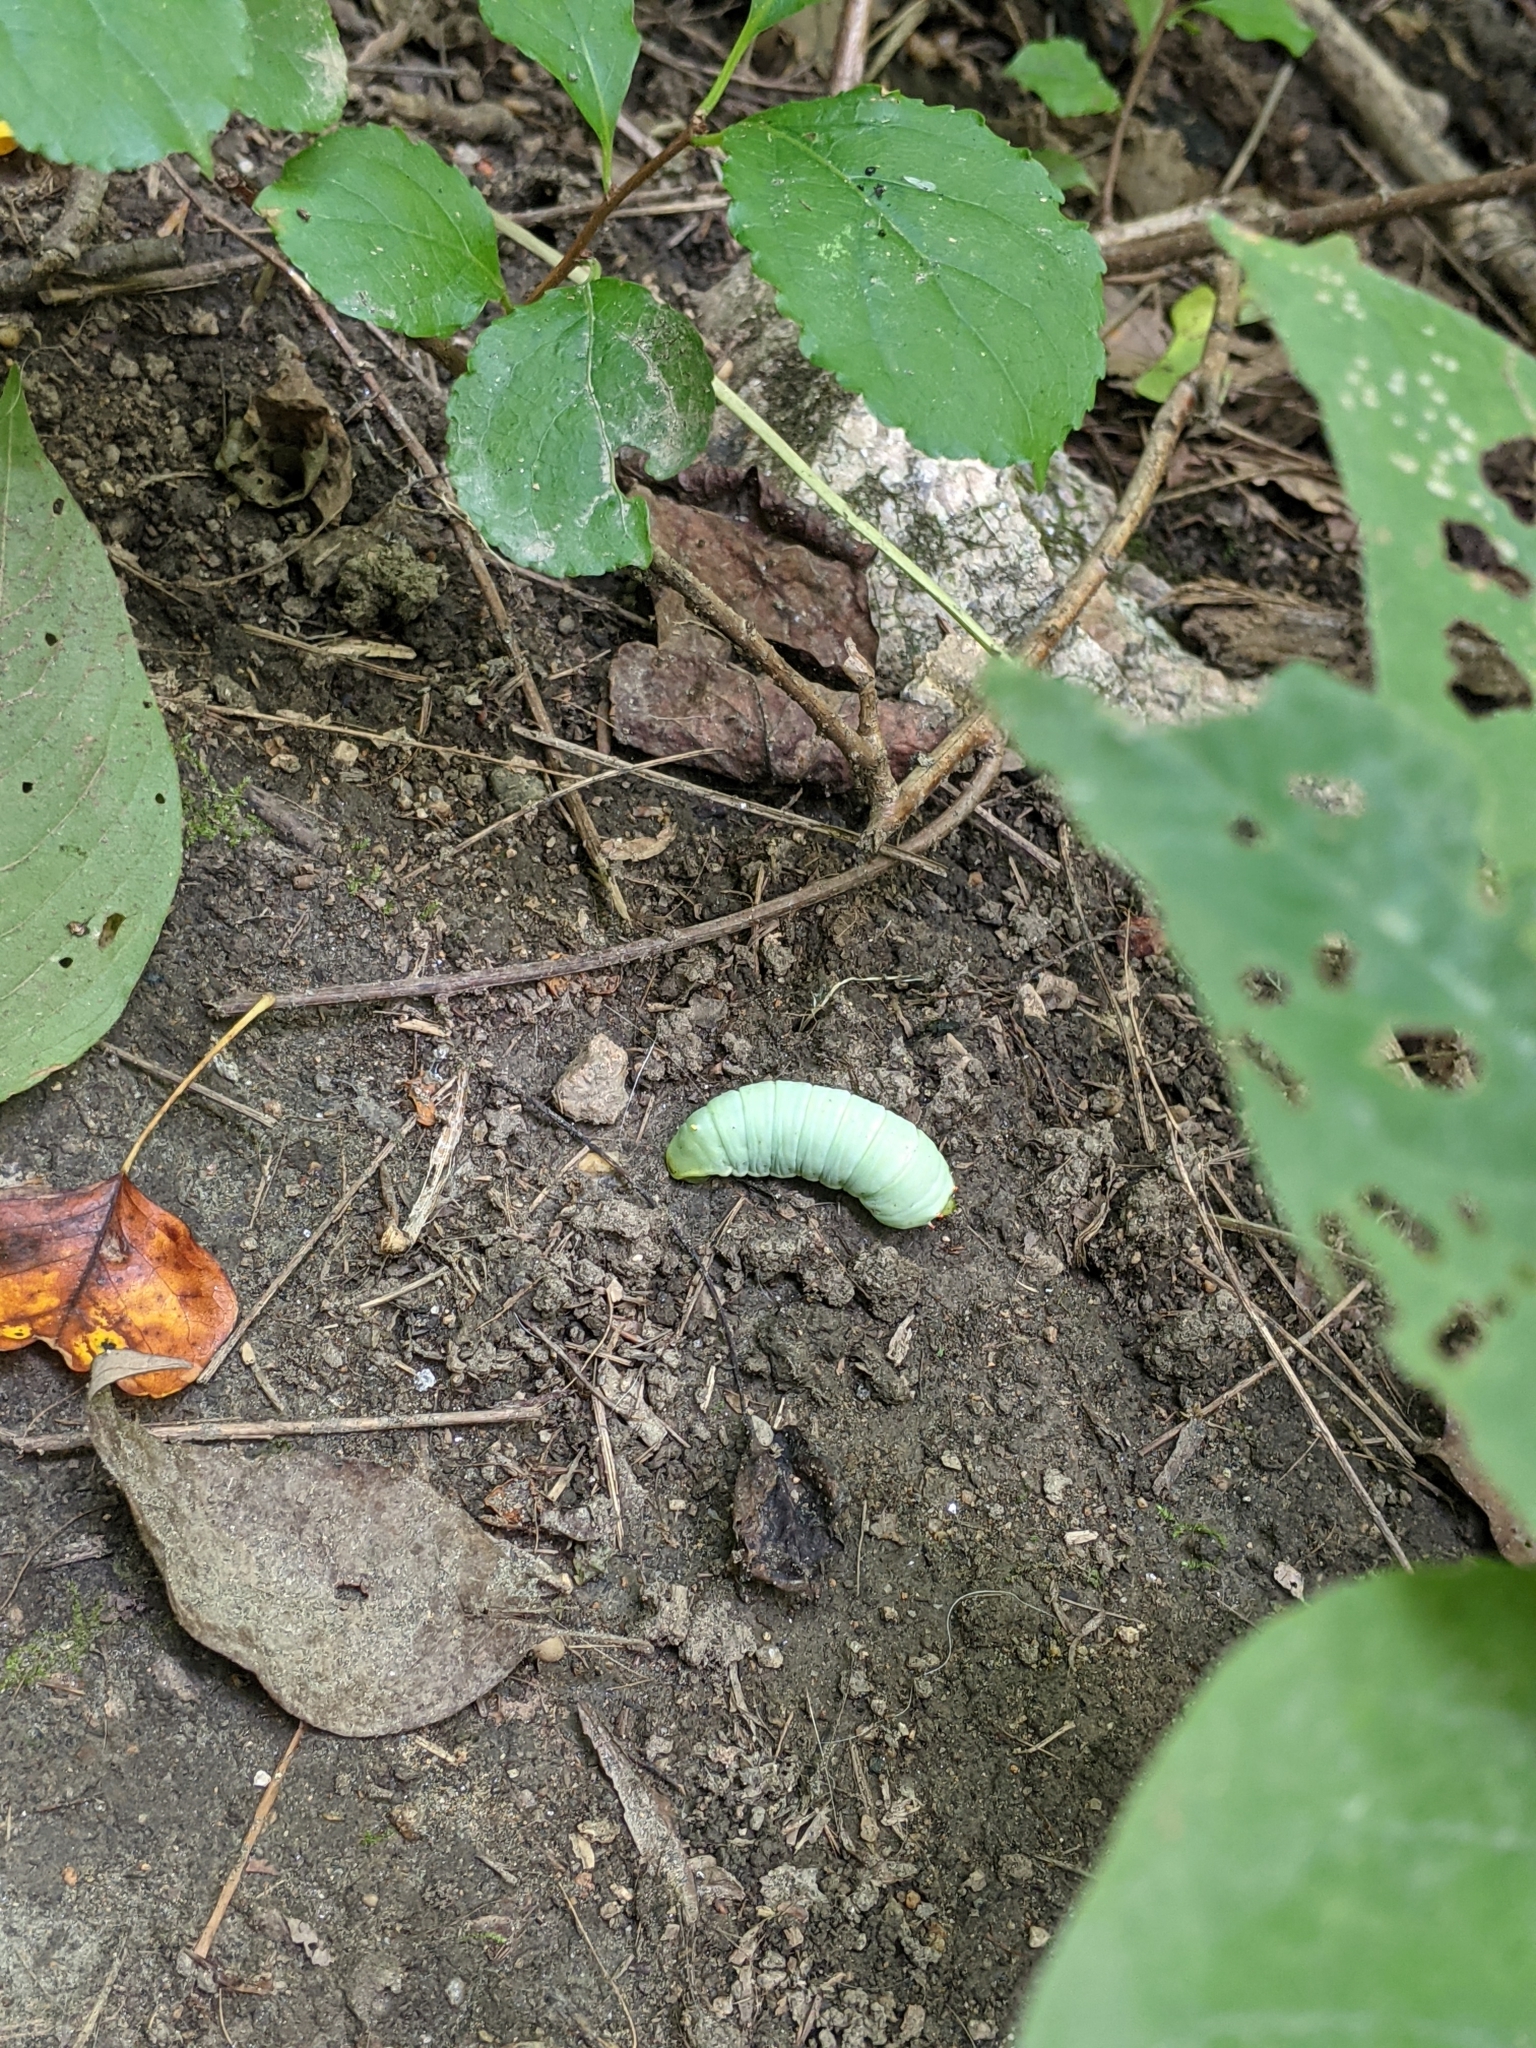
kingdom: Animalia
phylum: Arthropoda
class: Insecta
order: Lepidoptera
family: Saturniidae
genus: Callosamia
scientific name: Callosamia angulifera
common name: Tulip tree silkmoth
